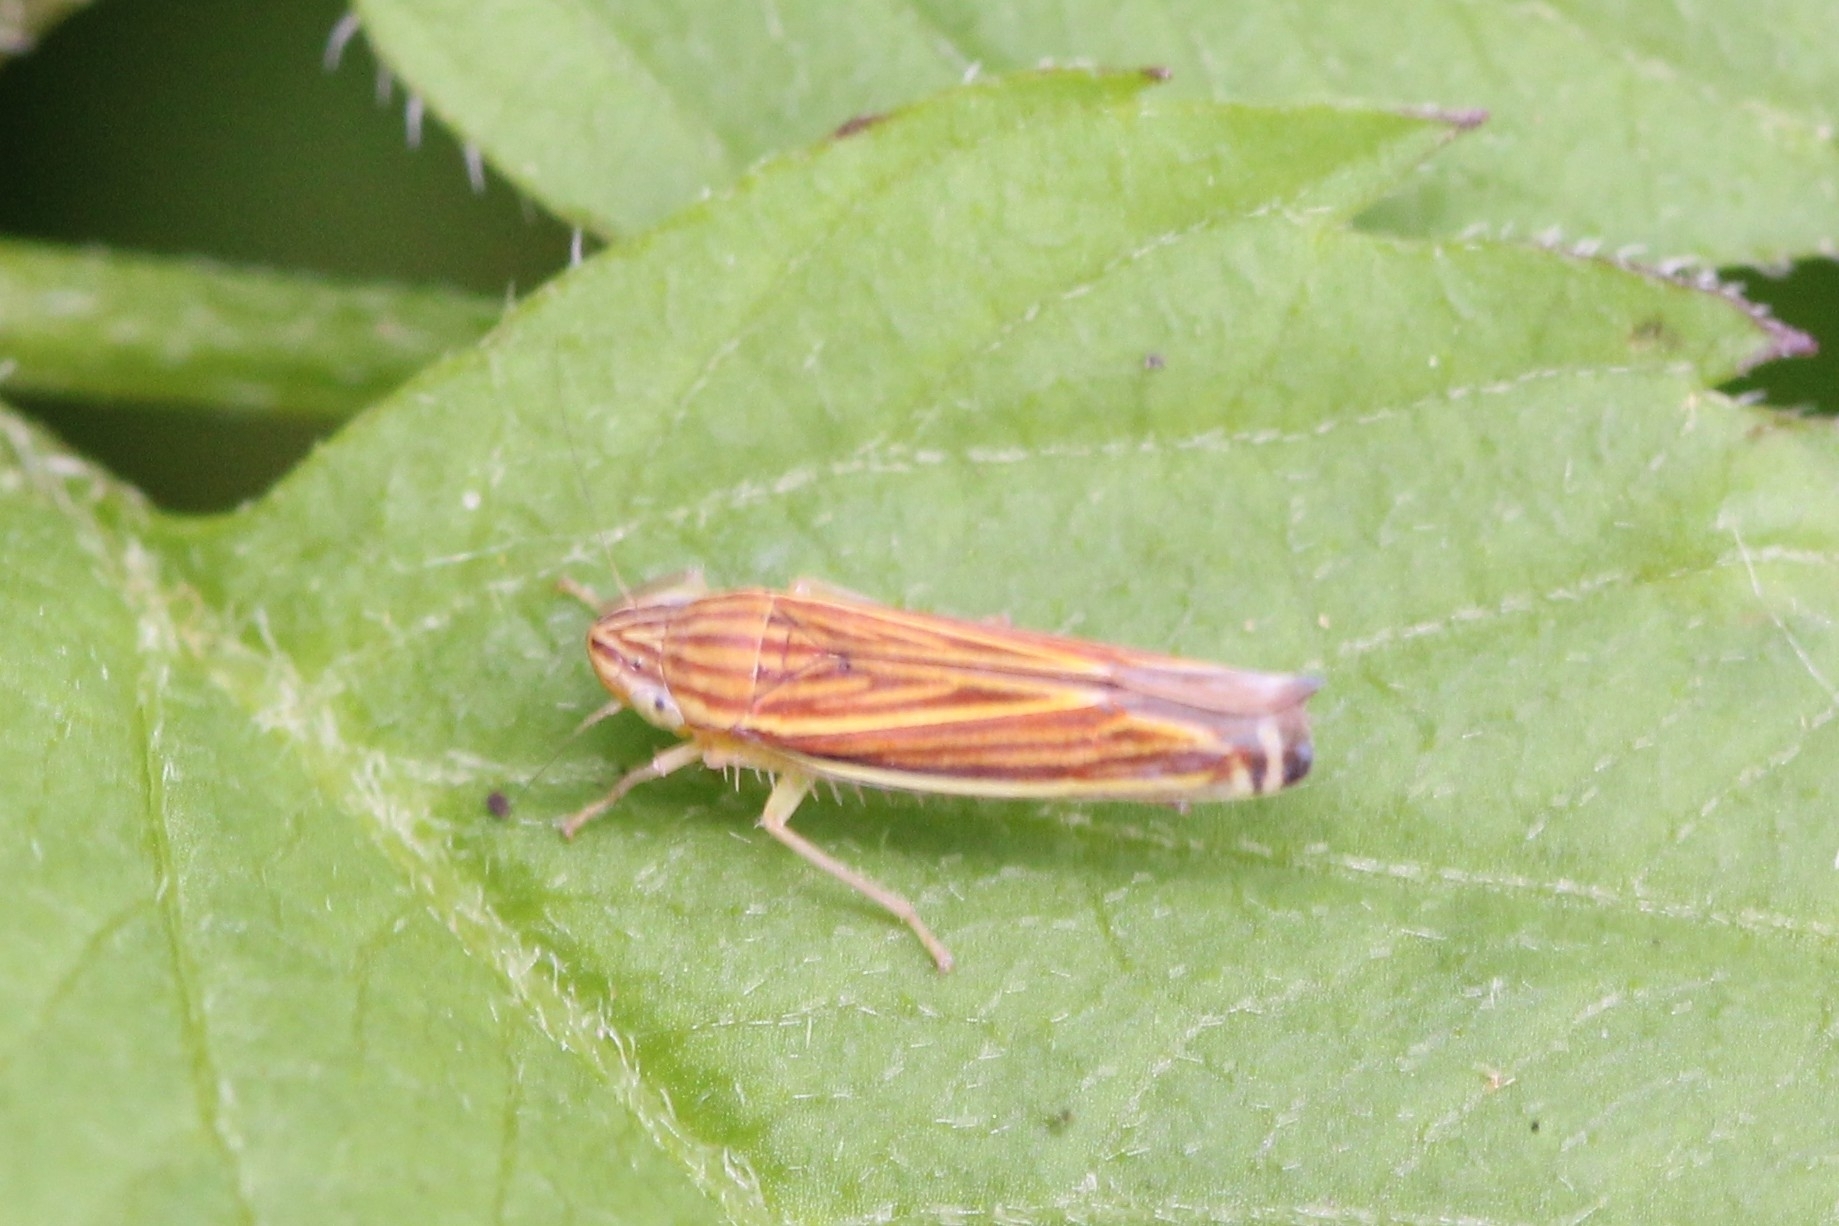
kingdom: Animalia
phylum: Arthropoda
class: Insecta
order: Hemiptera
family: Cicadellidae
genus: Sibovia
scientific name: Sibovia occatoria
